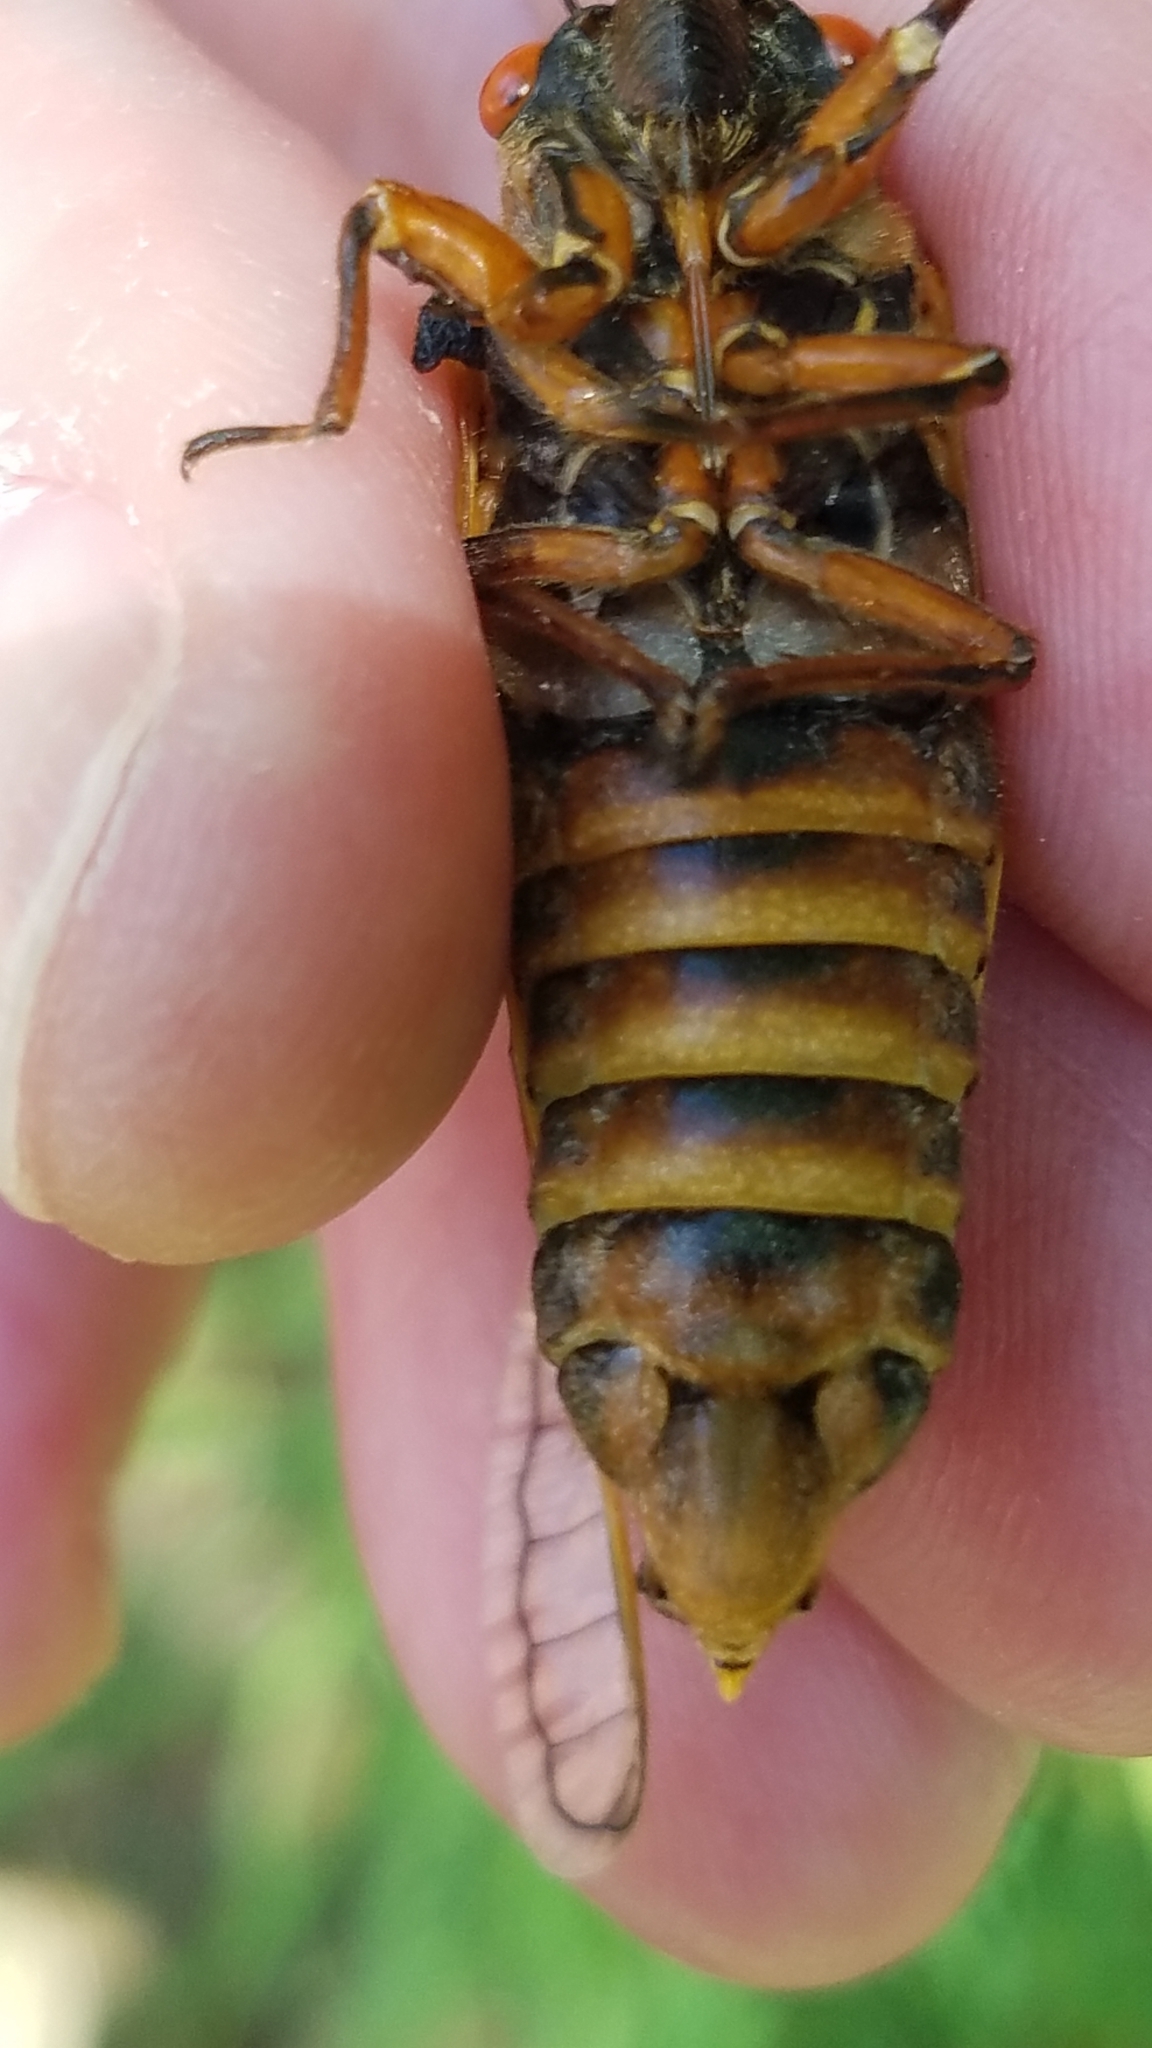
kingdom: Animalia
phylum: Arthropoda
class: Insecta
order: Hemiptera
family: Cicadidae
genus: Magicicada
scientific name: Magicicada septendecim
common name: Periodical cicada
